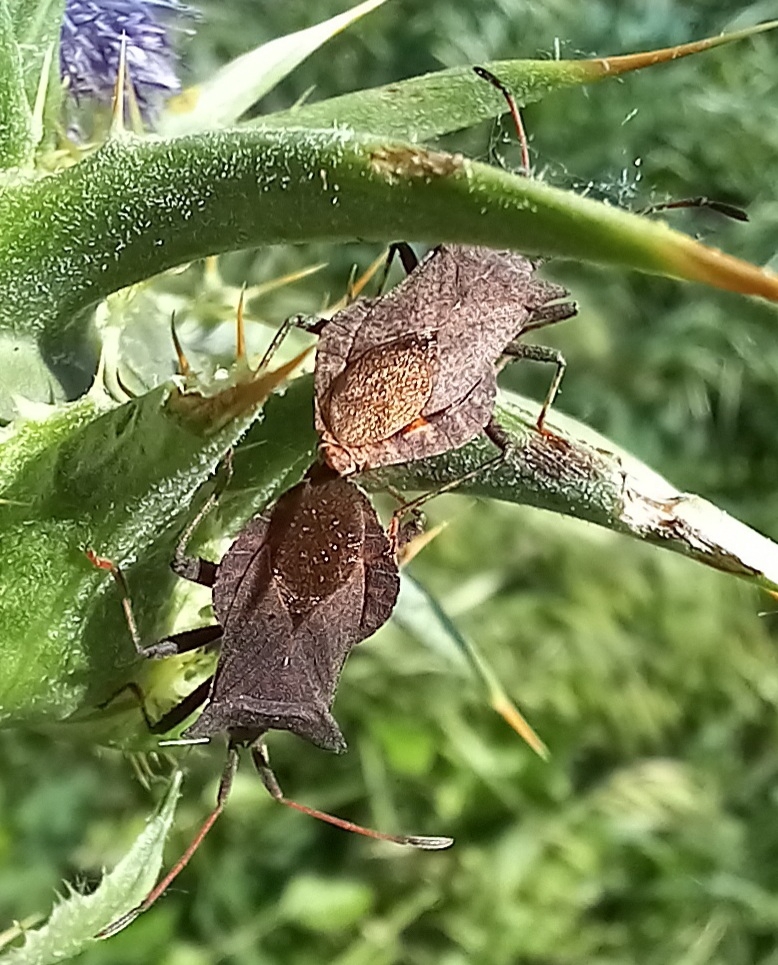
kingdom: Animalia
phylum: Arthropoda
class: Insecta
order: Hemiptera
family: Coreidae
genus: Coreus
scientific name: Coreus marginatus
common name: Dock bug
